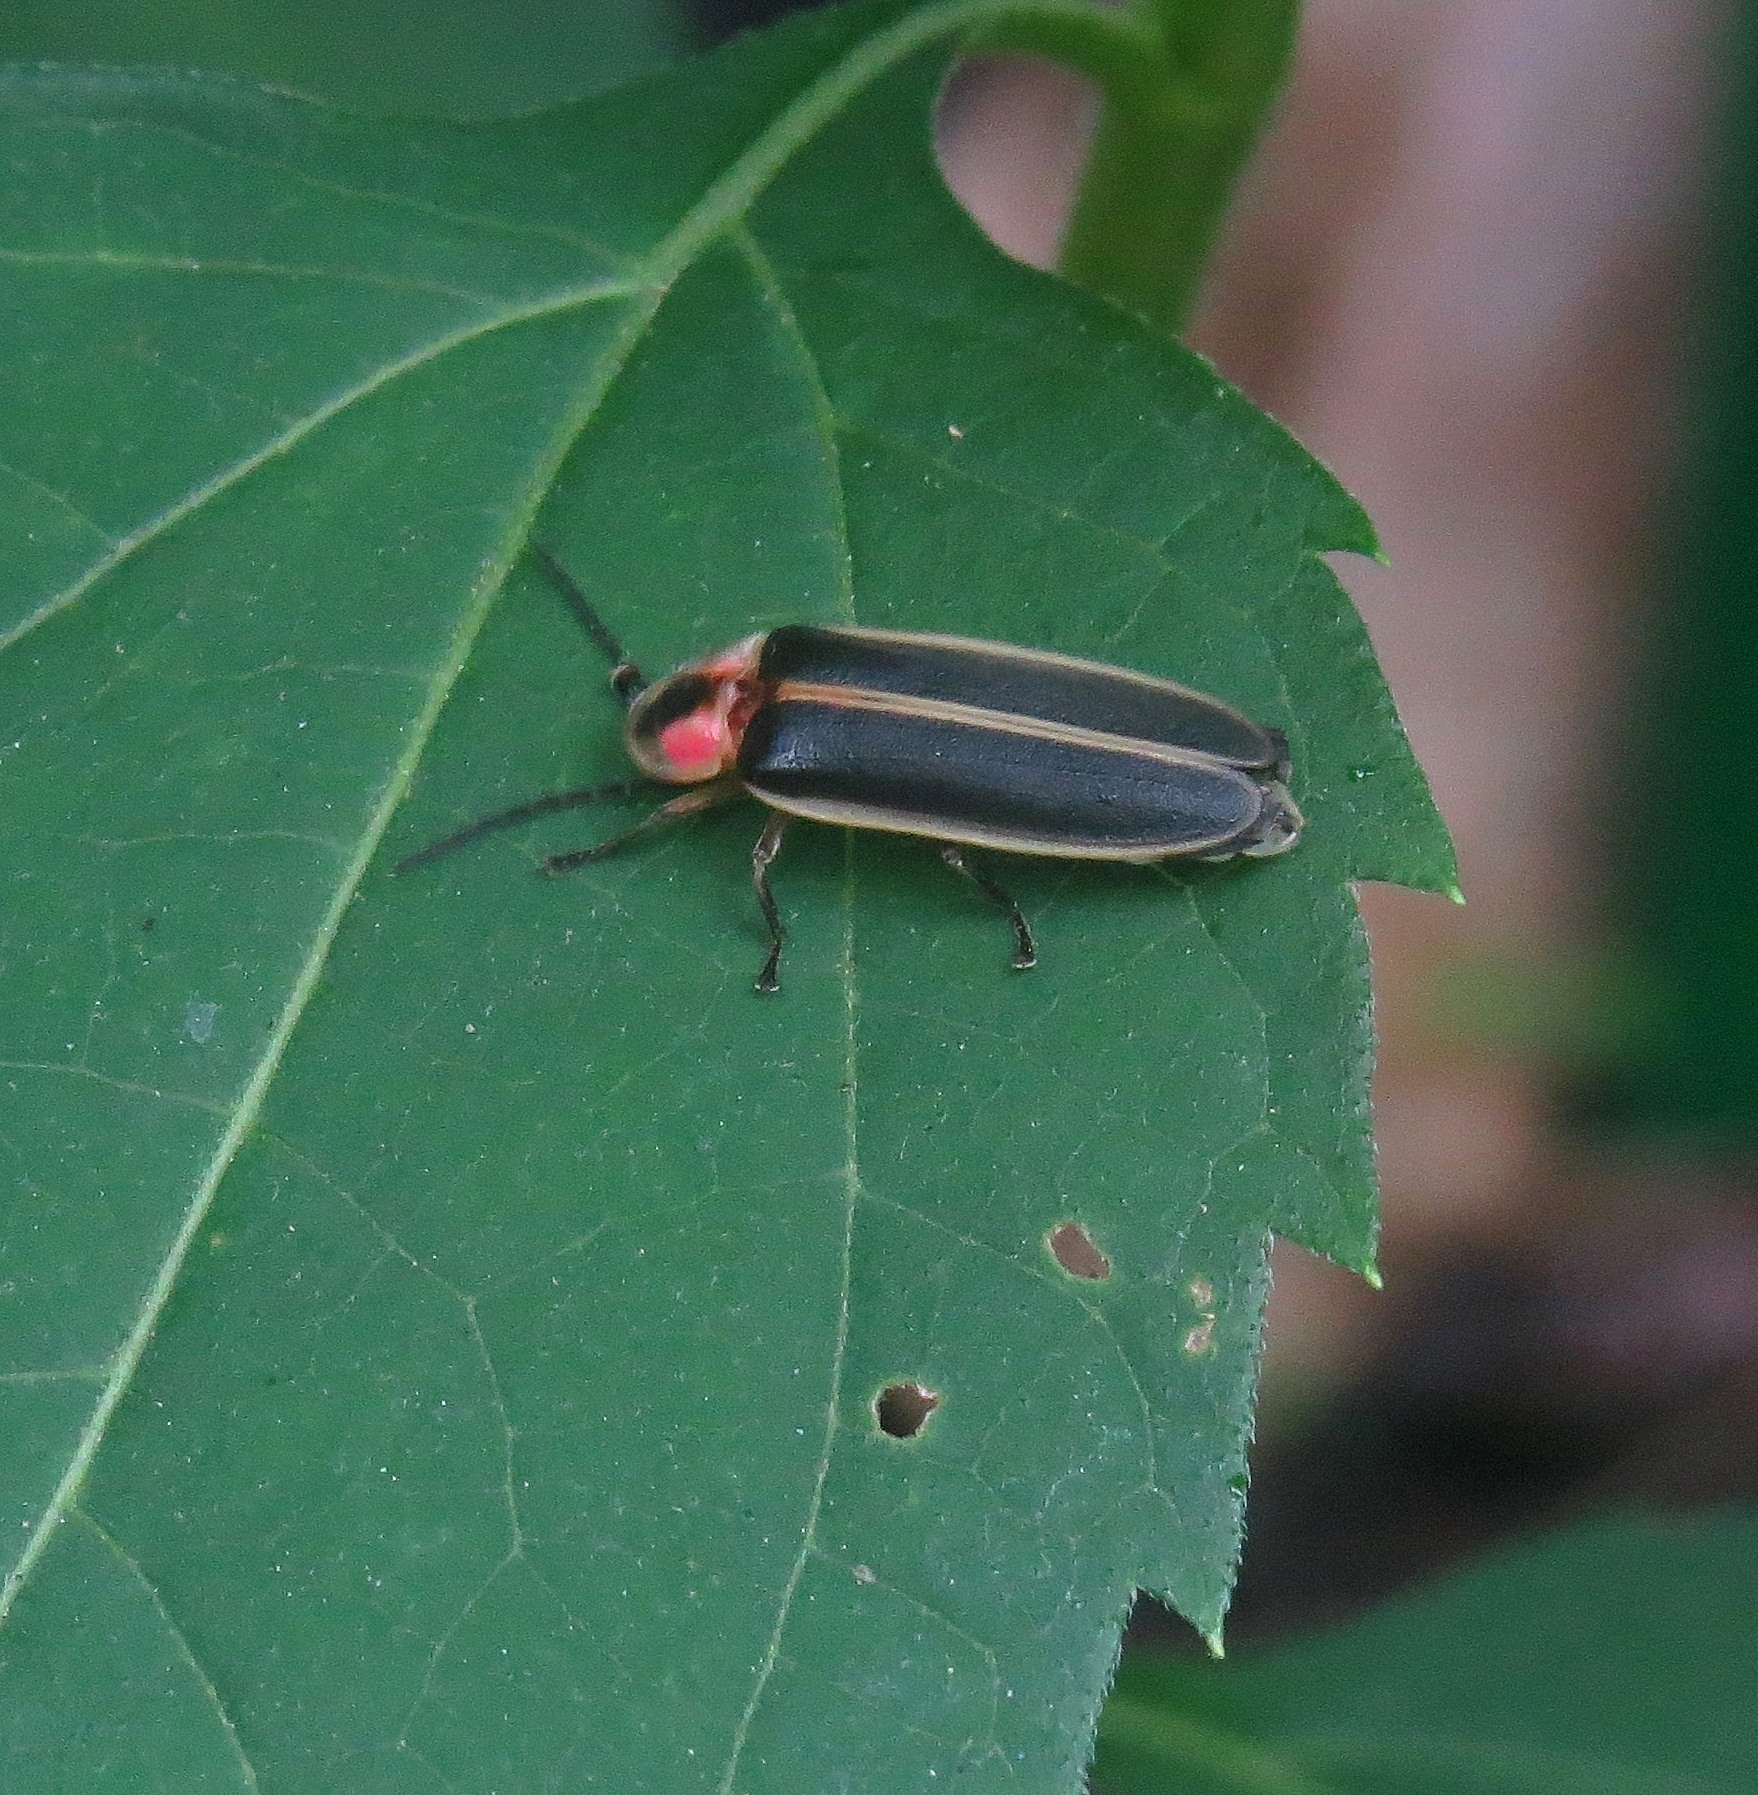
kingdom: Animalia
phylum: Arthropoda
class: Insecta
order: Coleoptera
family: Lampyridae
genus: Photinus
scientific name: Photinus pyralis
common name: Big dipper firefly
